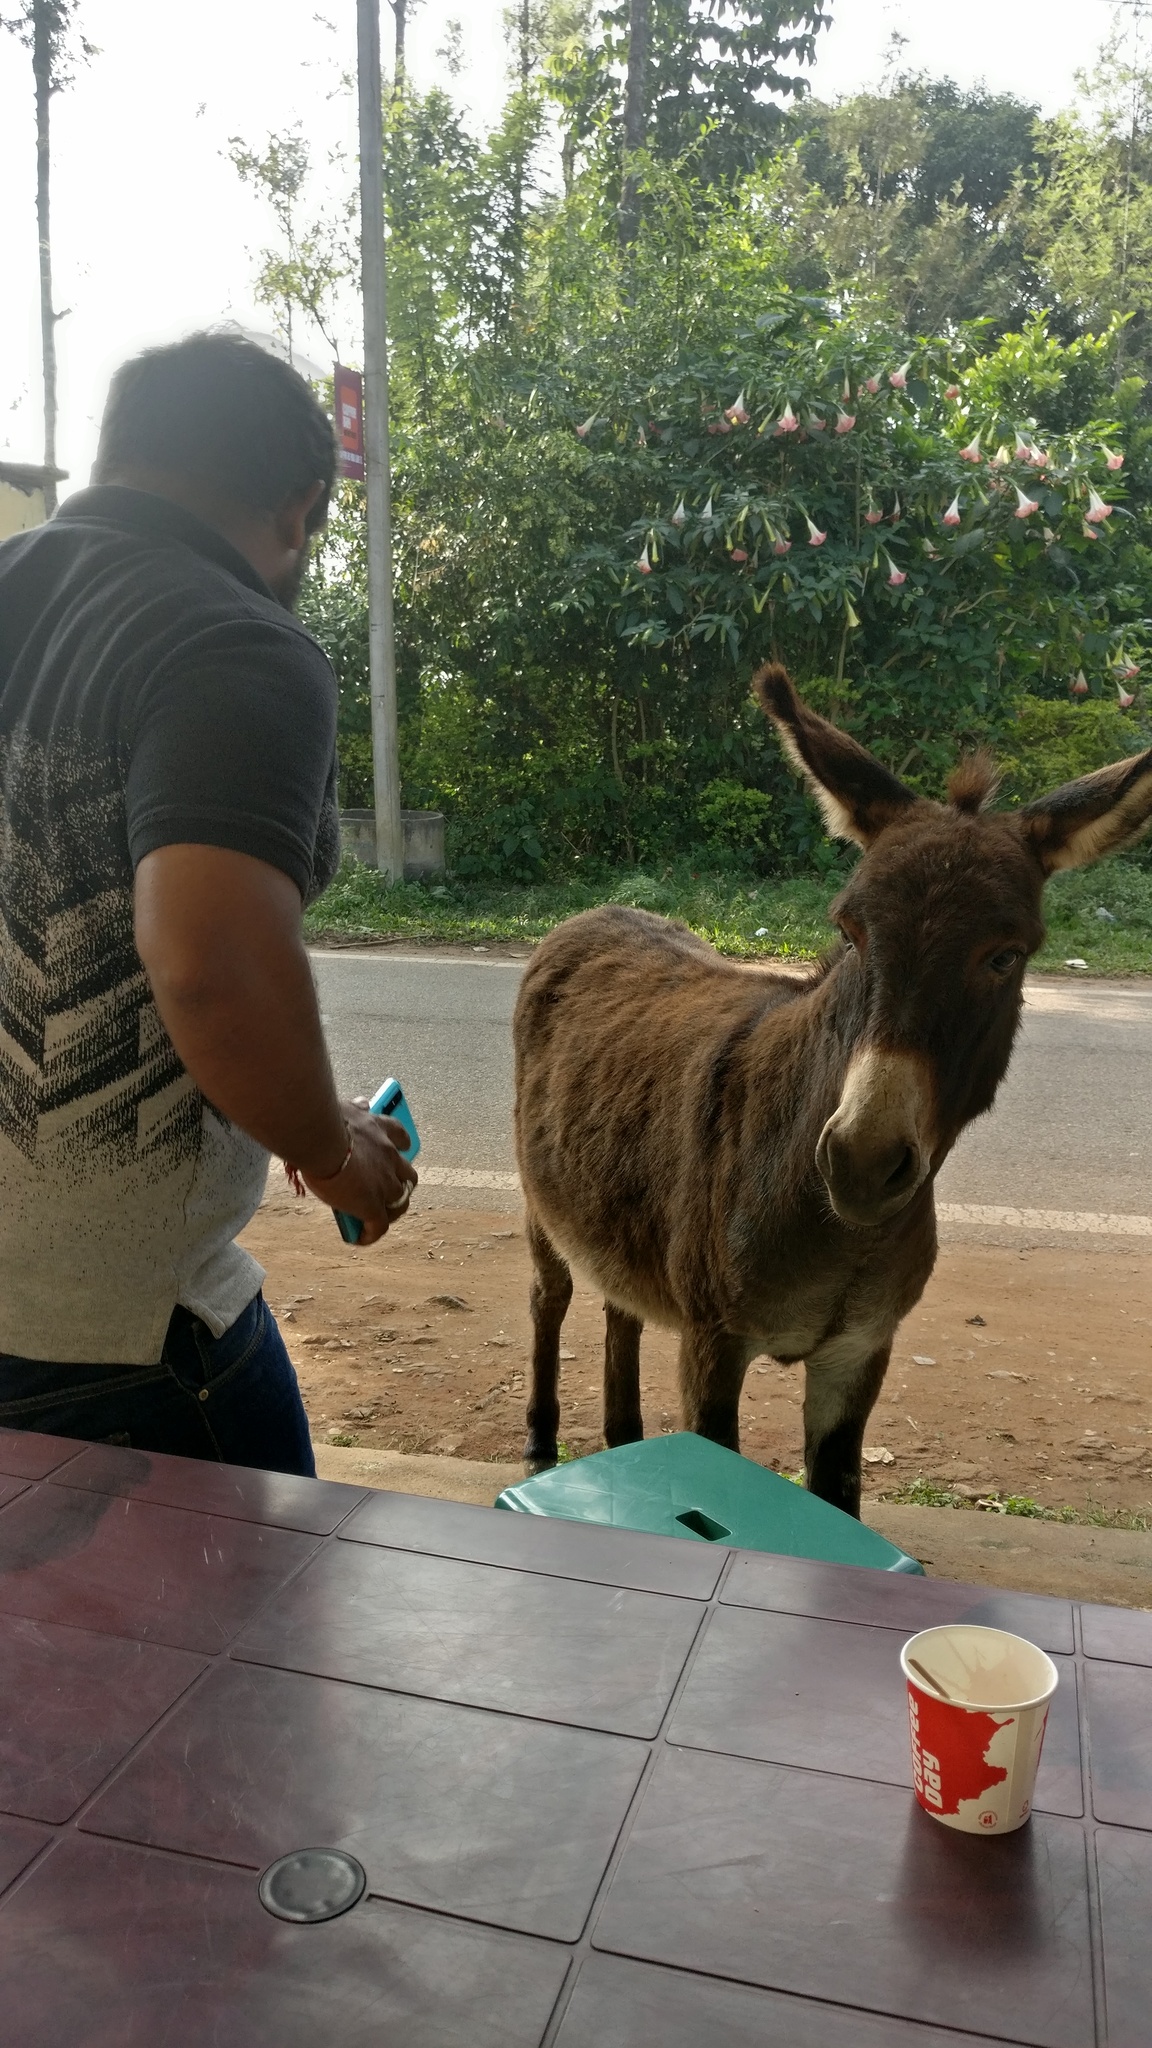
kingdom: Animalia
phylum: Chordata
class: Mammalia
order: Perissodactyla
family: Equidae
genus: Equus
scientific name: Equus asinus
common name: Ass
